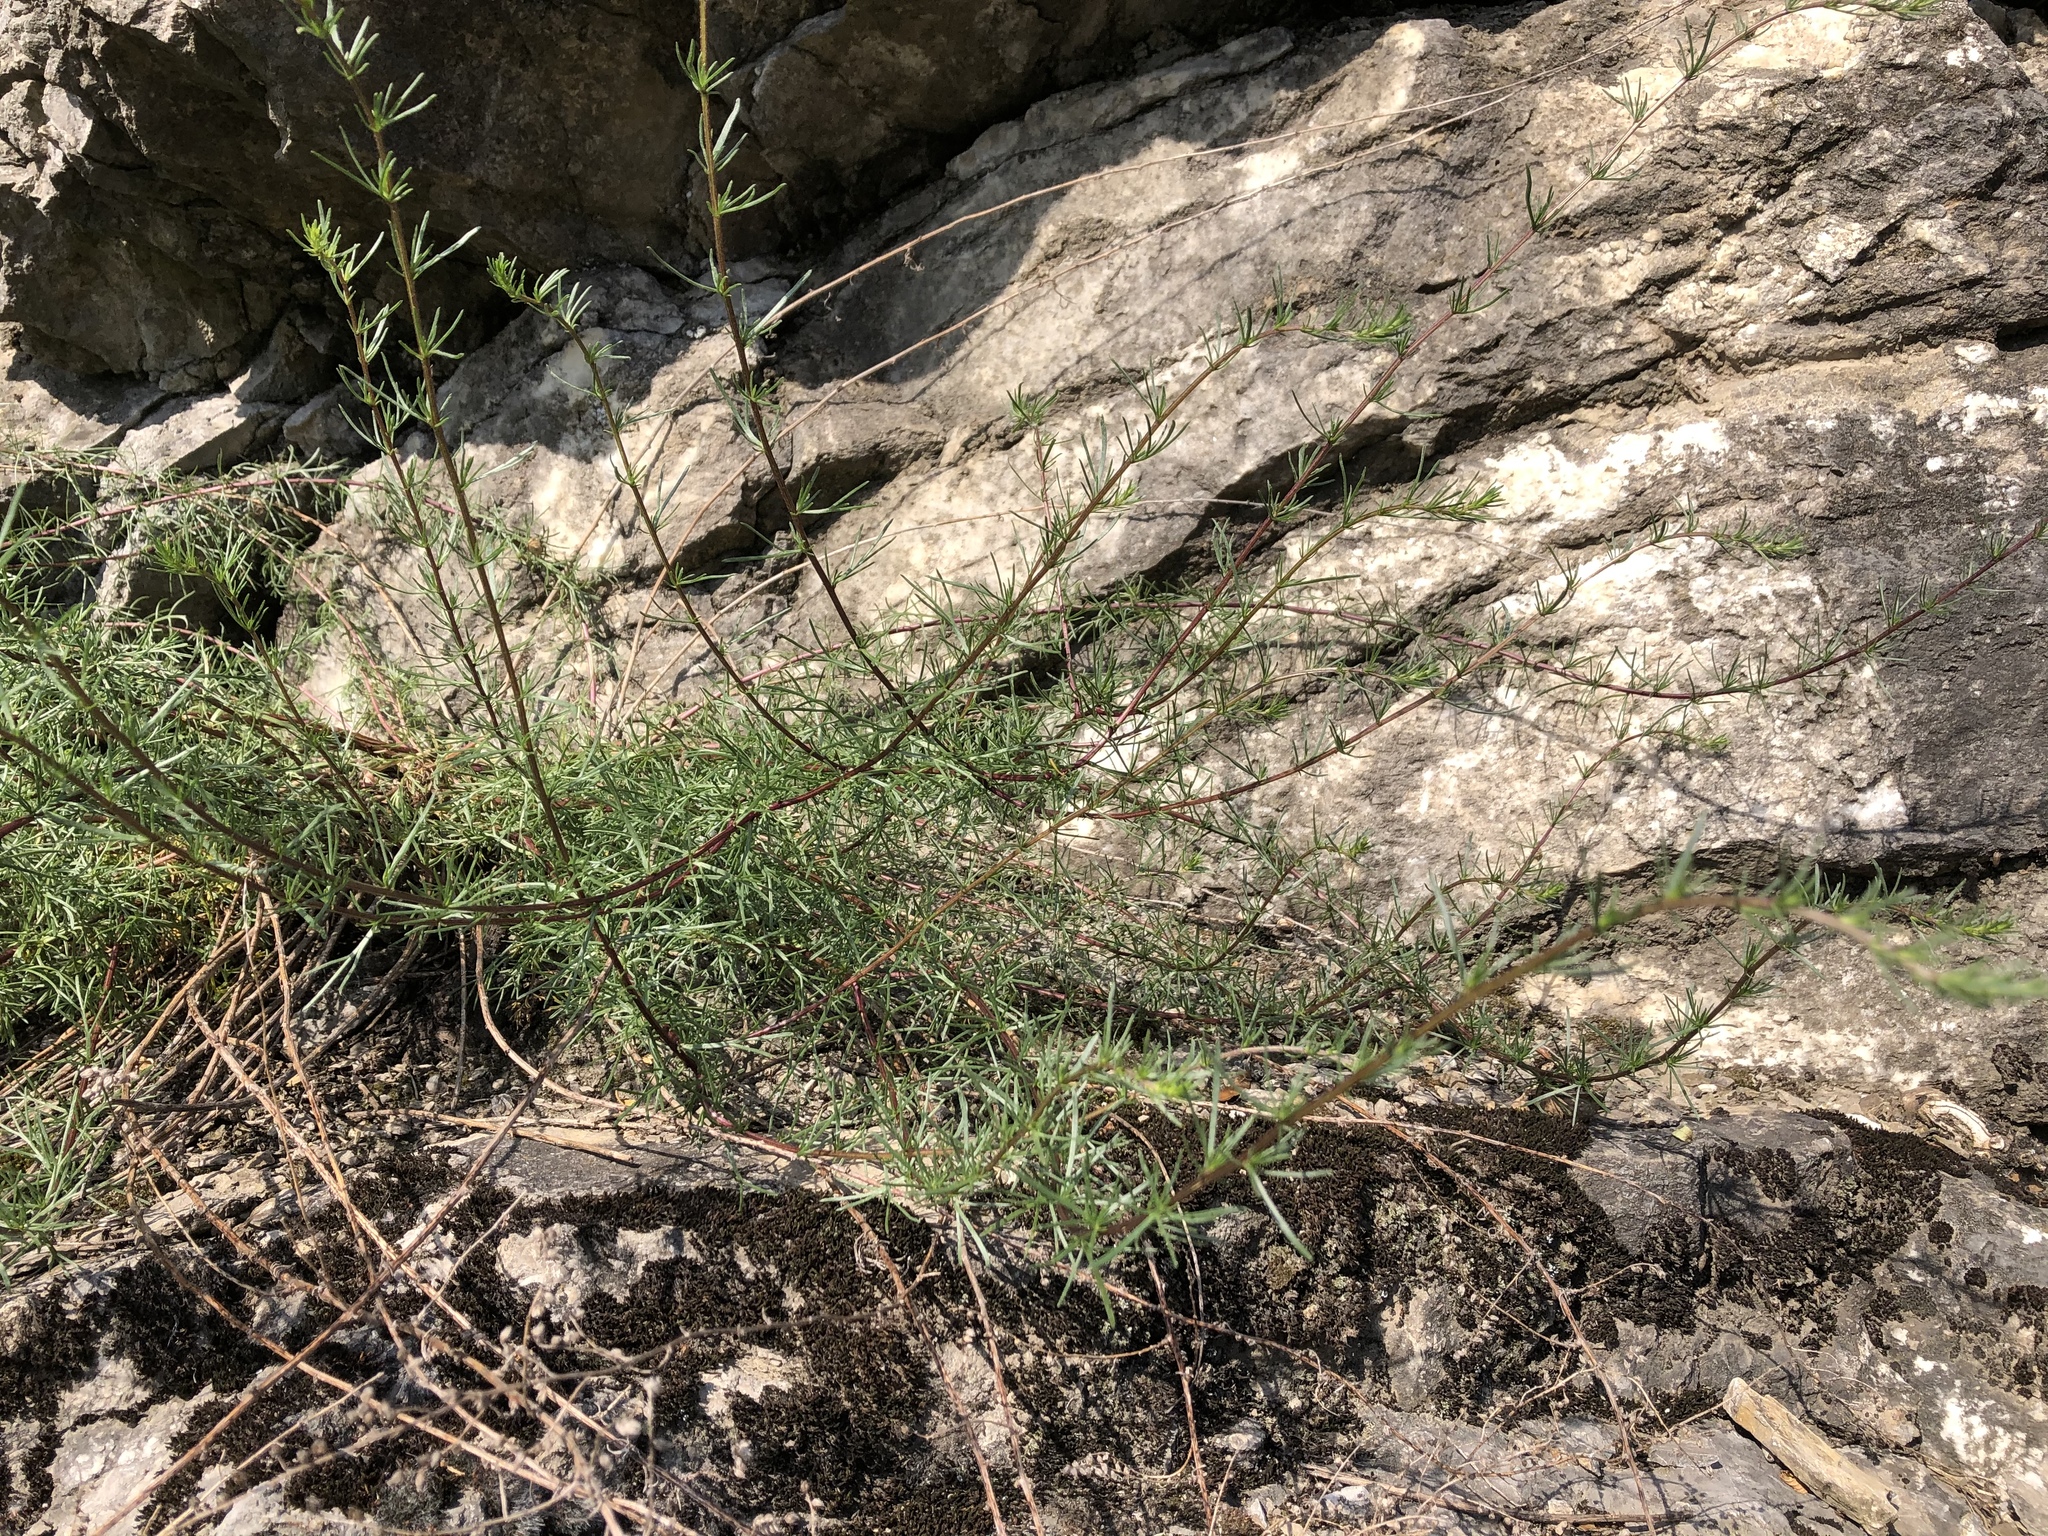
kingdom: Plantae
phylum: Tracheophyta
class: Magnoliopsida
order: Asterales
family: Asteraceae
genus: Artemisia
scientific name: Artemisia campestris
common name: Field wormwood
